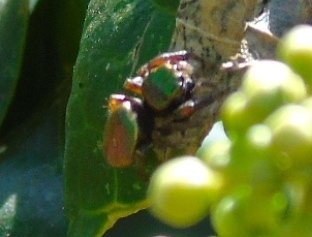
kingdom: Animalia
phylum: Arthropoda
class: Arachnida
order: Araneae
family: Salticidae
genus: Messua
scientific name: Messua
